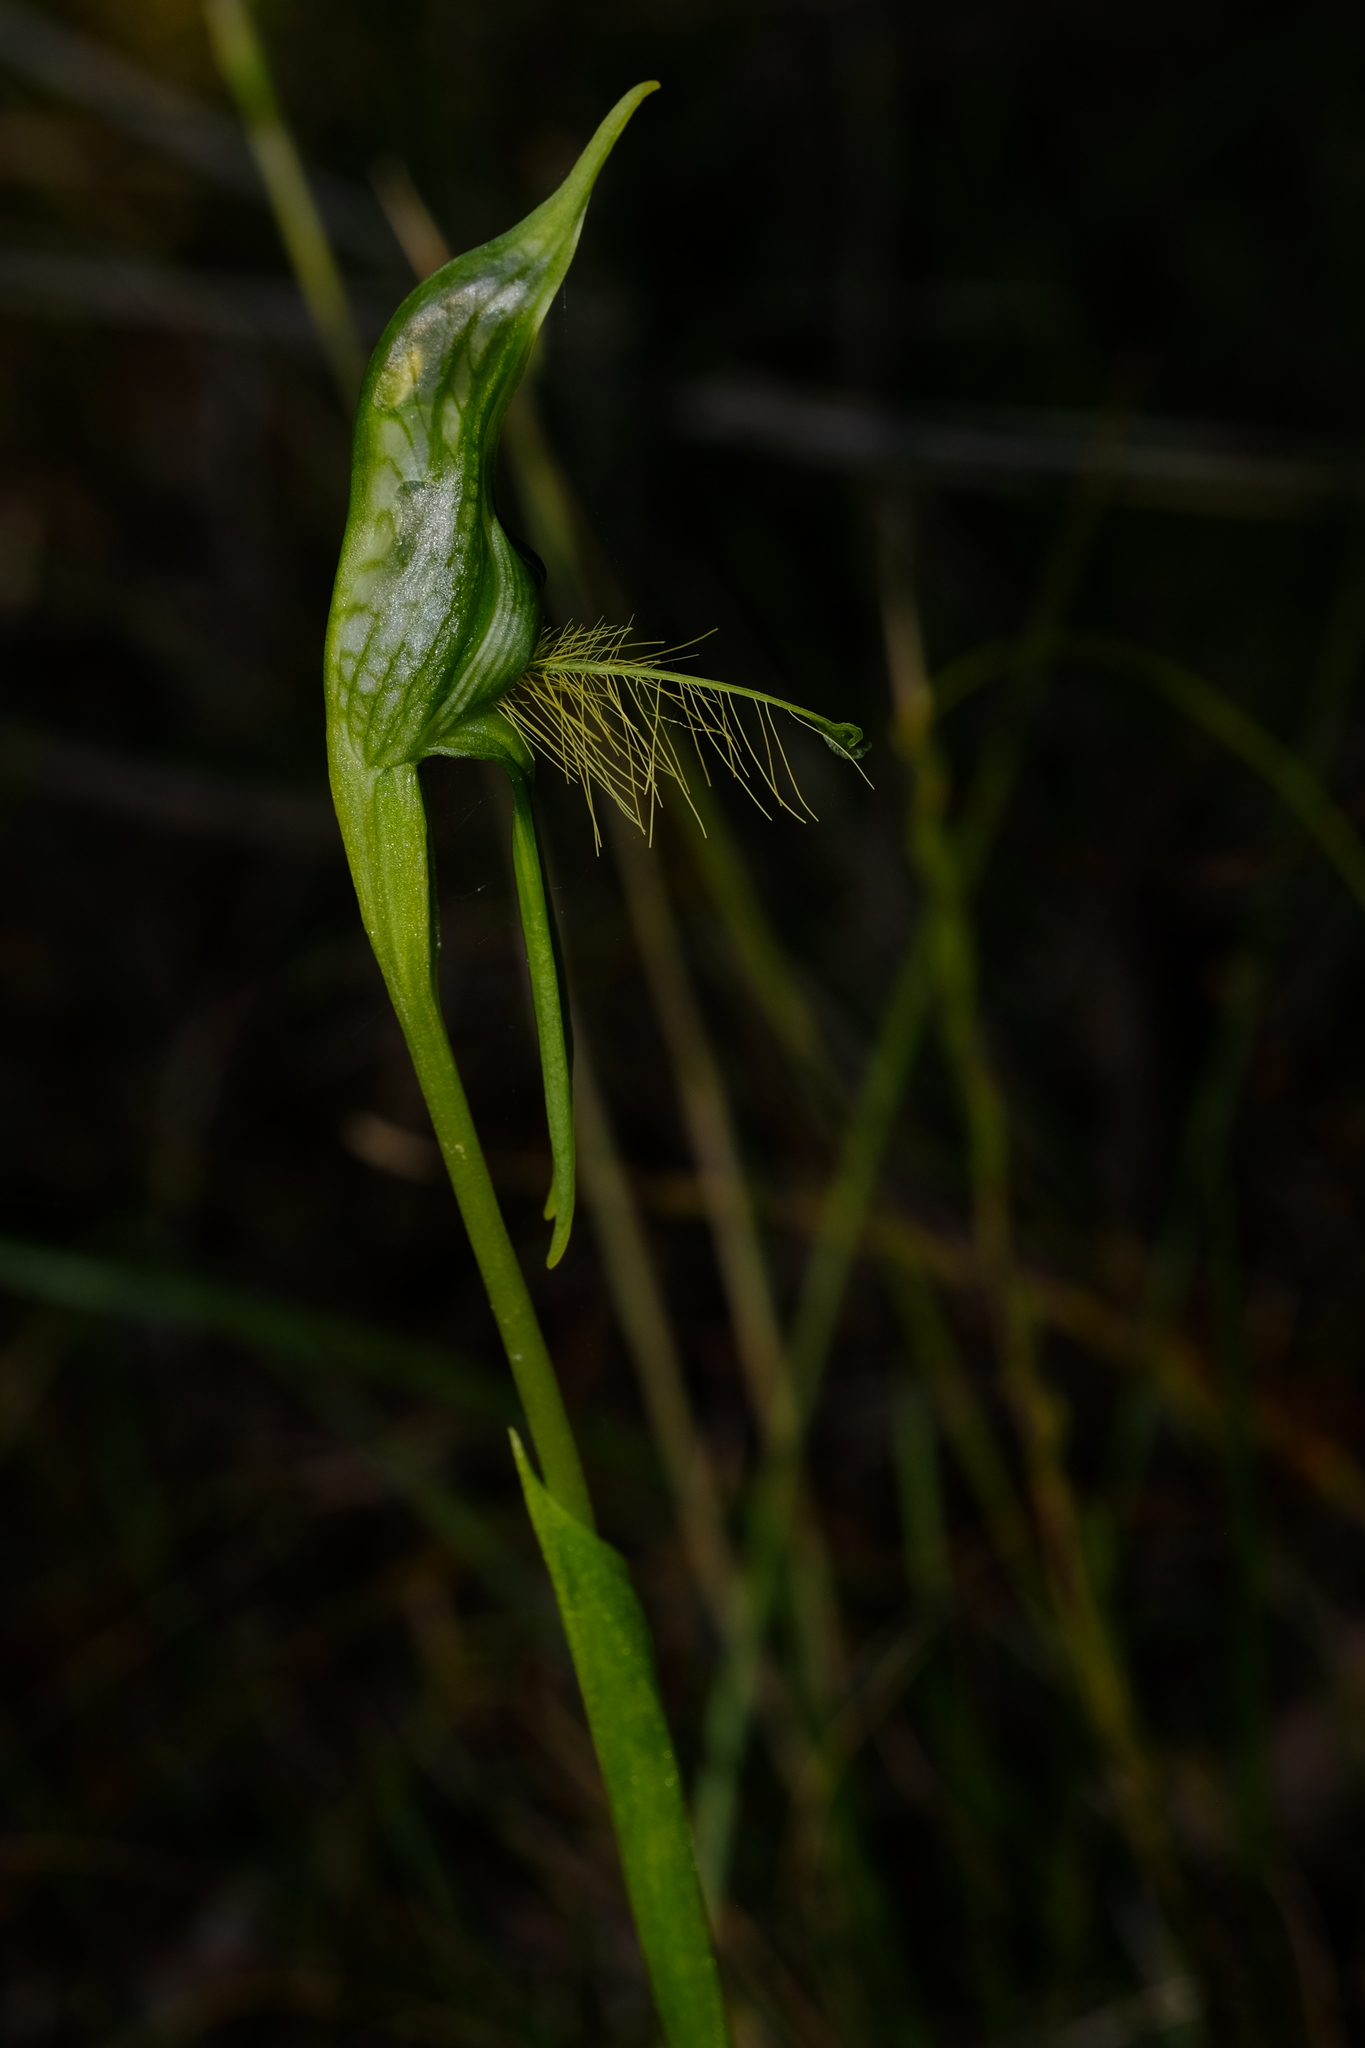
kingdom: Plantae
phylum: Tracheophyta
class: Liliopsida
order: Asparagales
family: Orchidaceae
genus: Pterostylis
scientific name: Pterostylis unicornis
